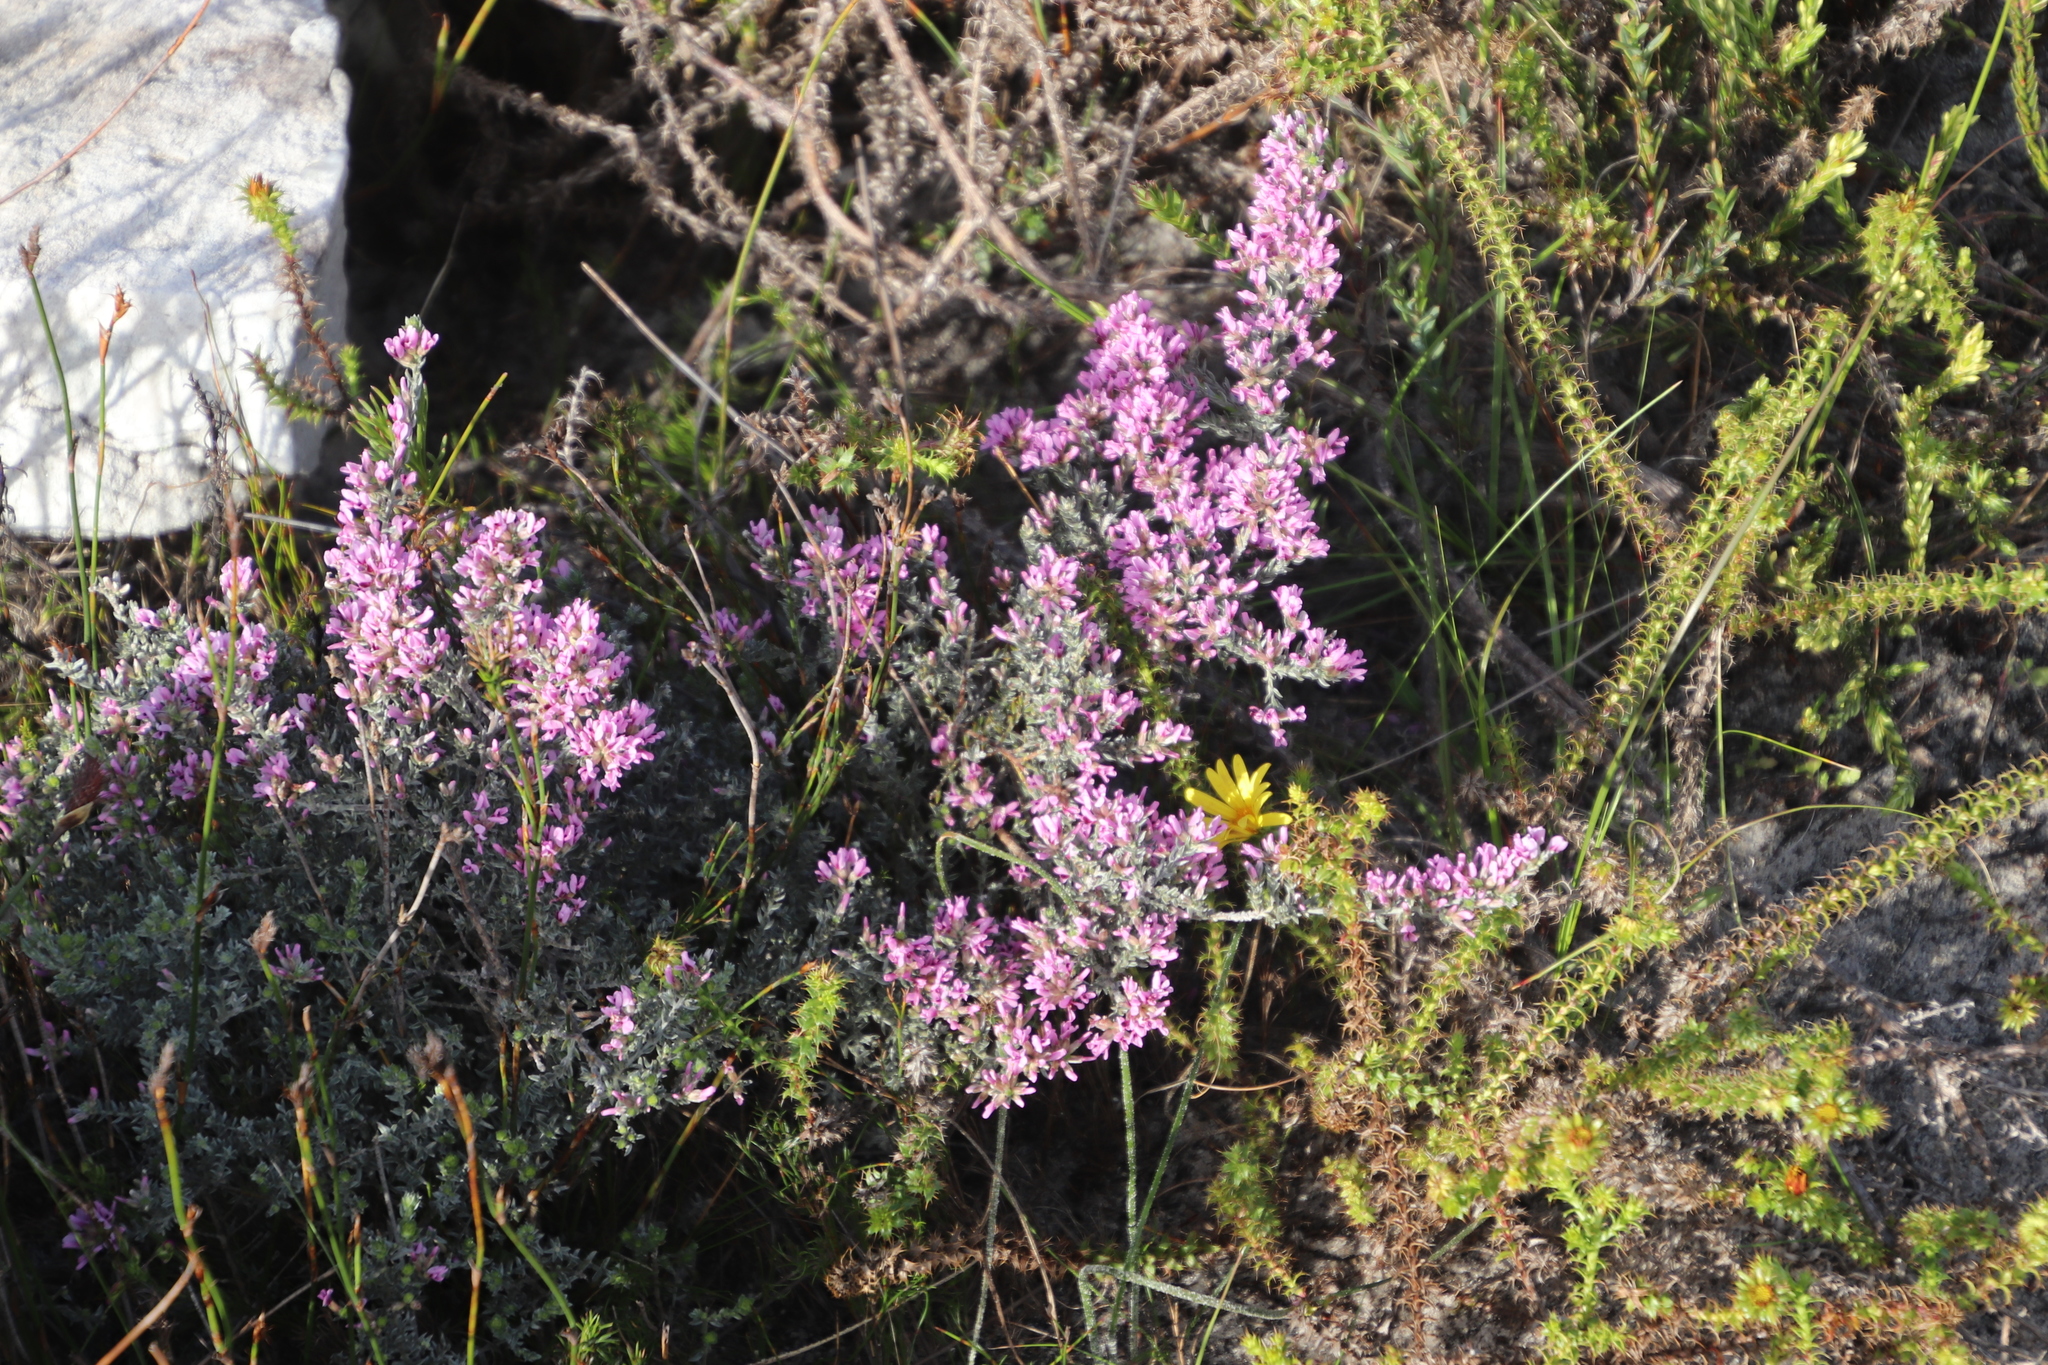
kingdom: Plantae
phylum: Tracheophyta
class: Magnoliopsida
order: Fabales
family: Fabaceae
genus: Amphithalea
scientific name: Amphithalea ericifolia
